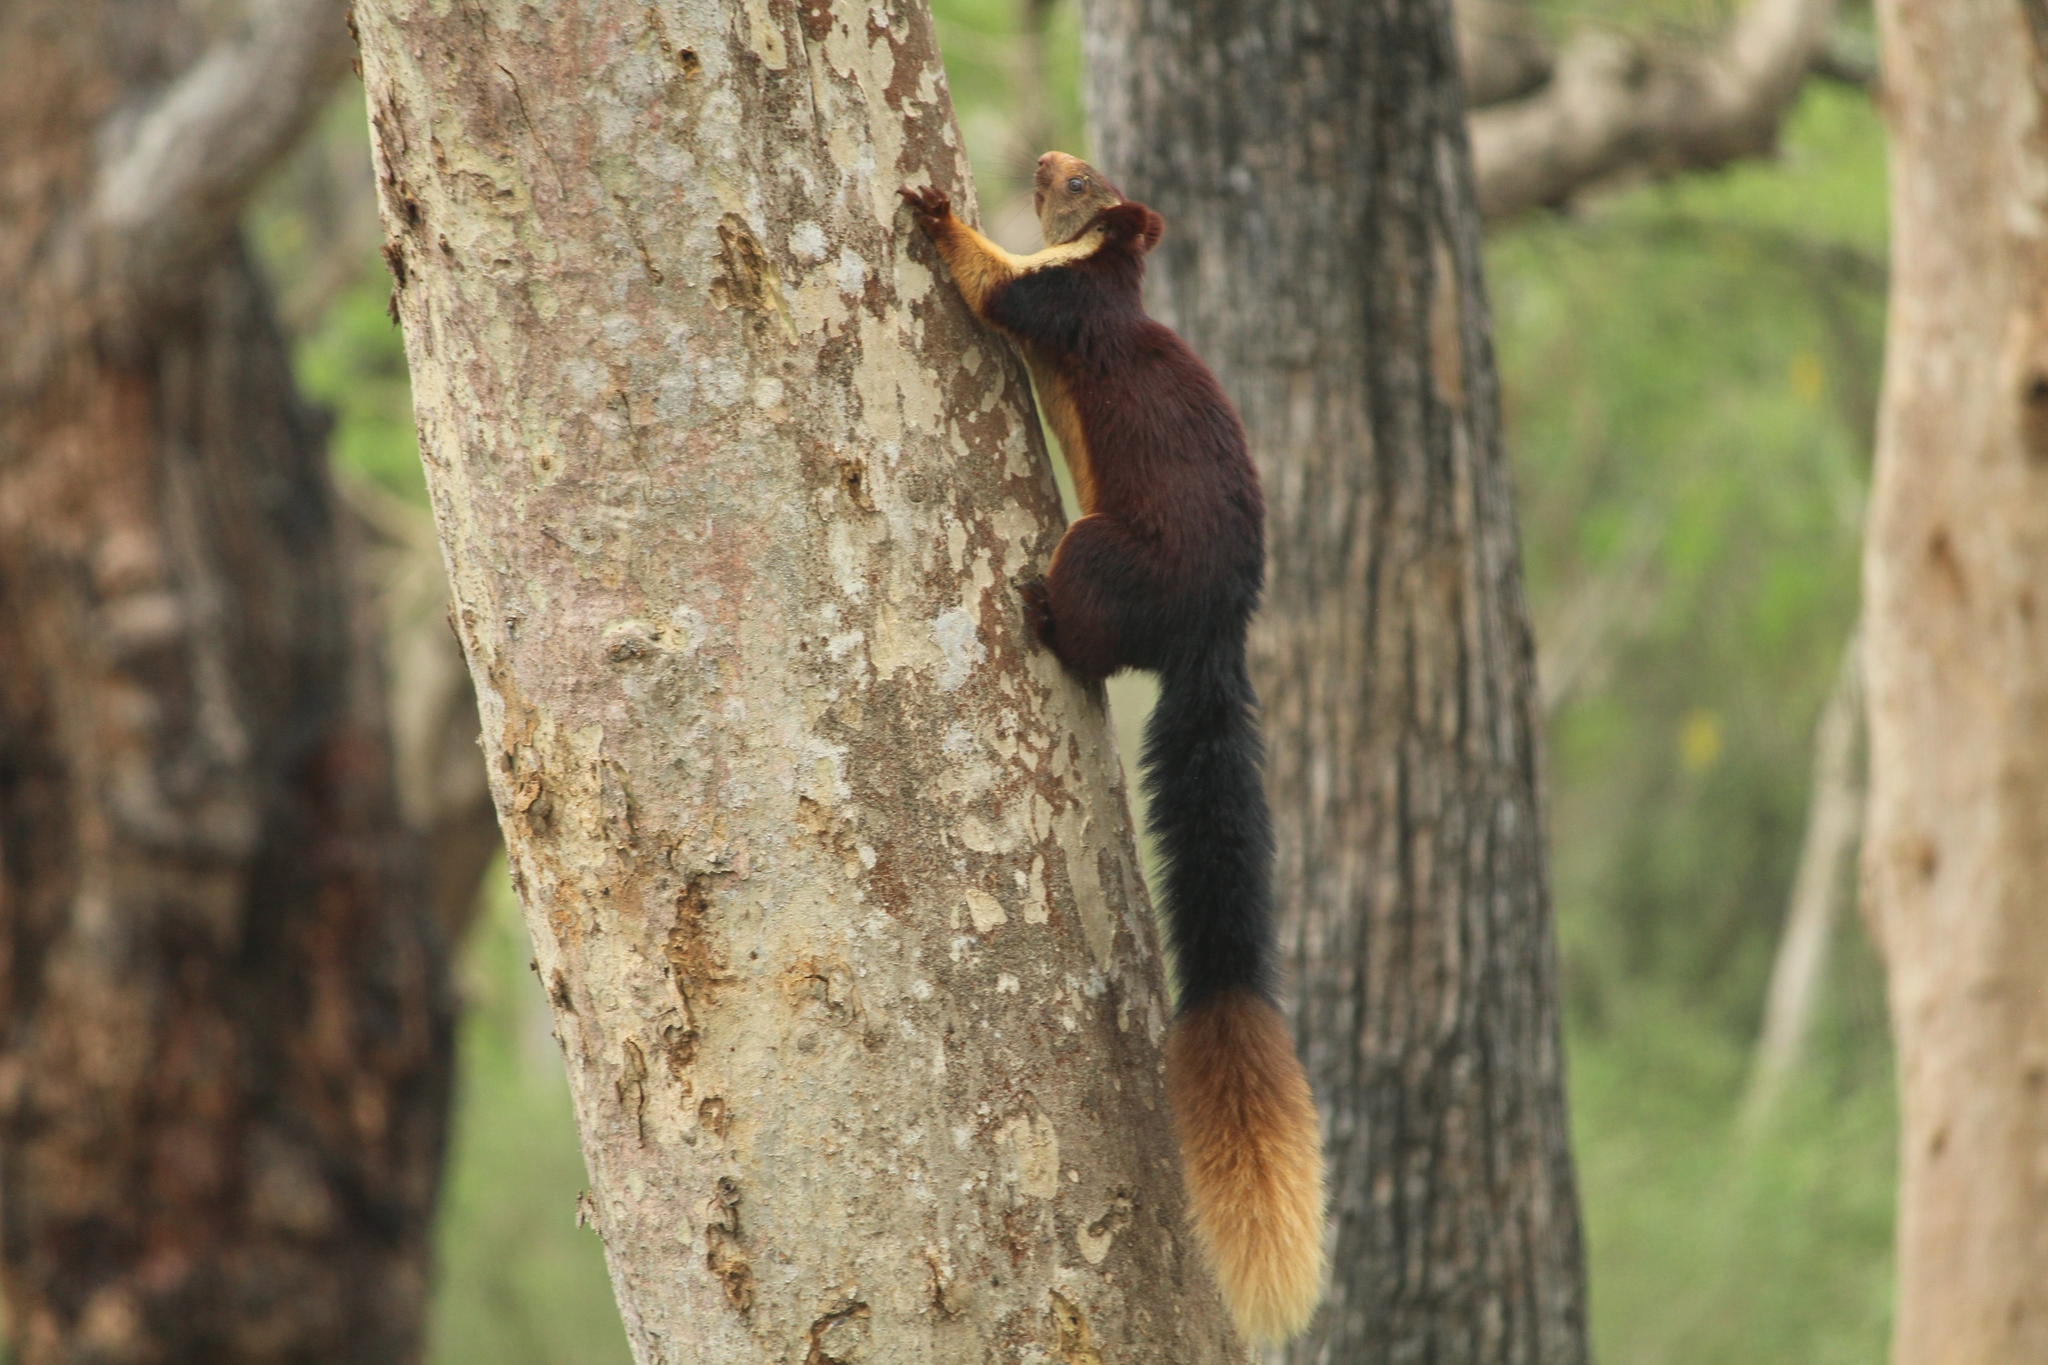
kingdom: Animalia
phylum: Chordata
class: Mammalia
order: Rodentia
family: Sciuridae
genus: Ratufa
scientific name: Ratufa indica
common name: Indian giant squirrel
